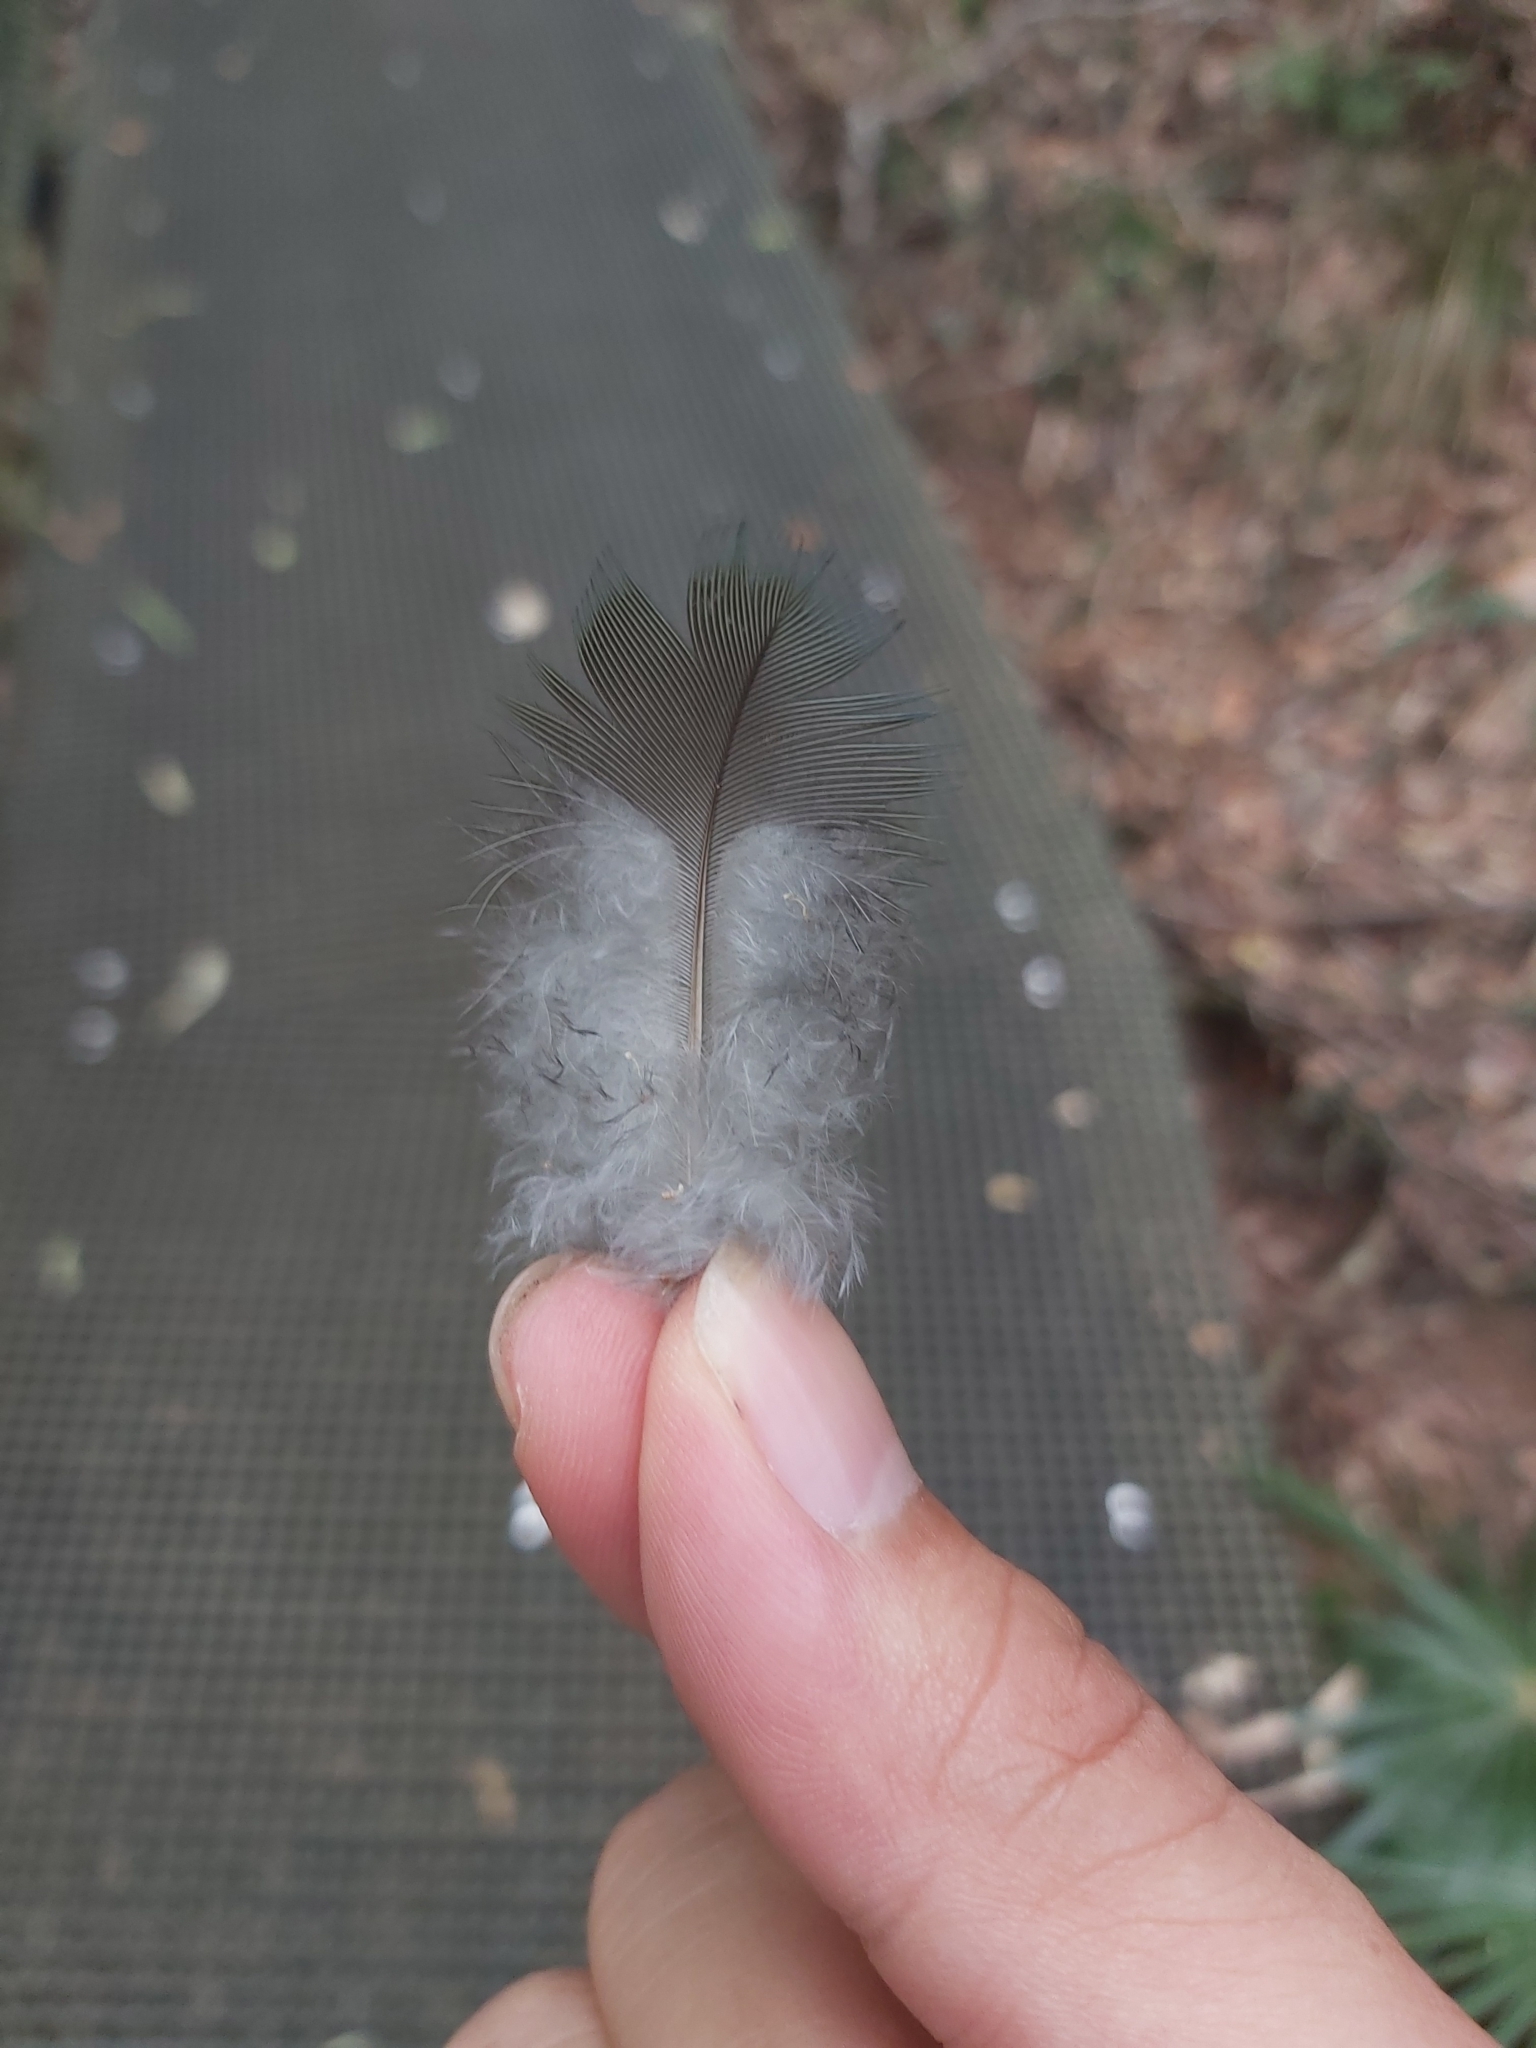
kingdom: Animalia
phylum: Chordata
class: Aves
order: Psittaciformes
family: Psittacidae
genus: Alisterus
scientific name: Alisterus scapularis
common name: Australian king parrot
